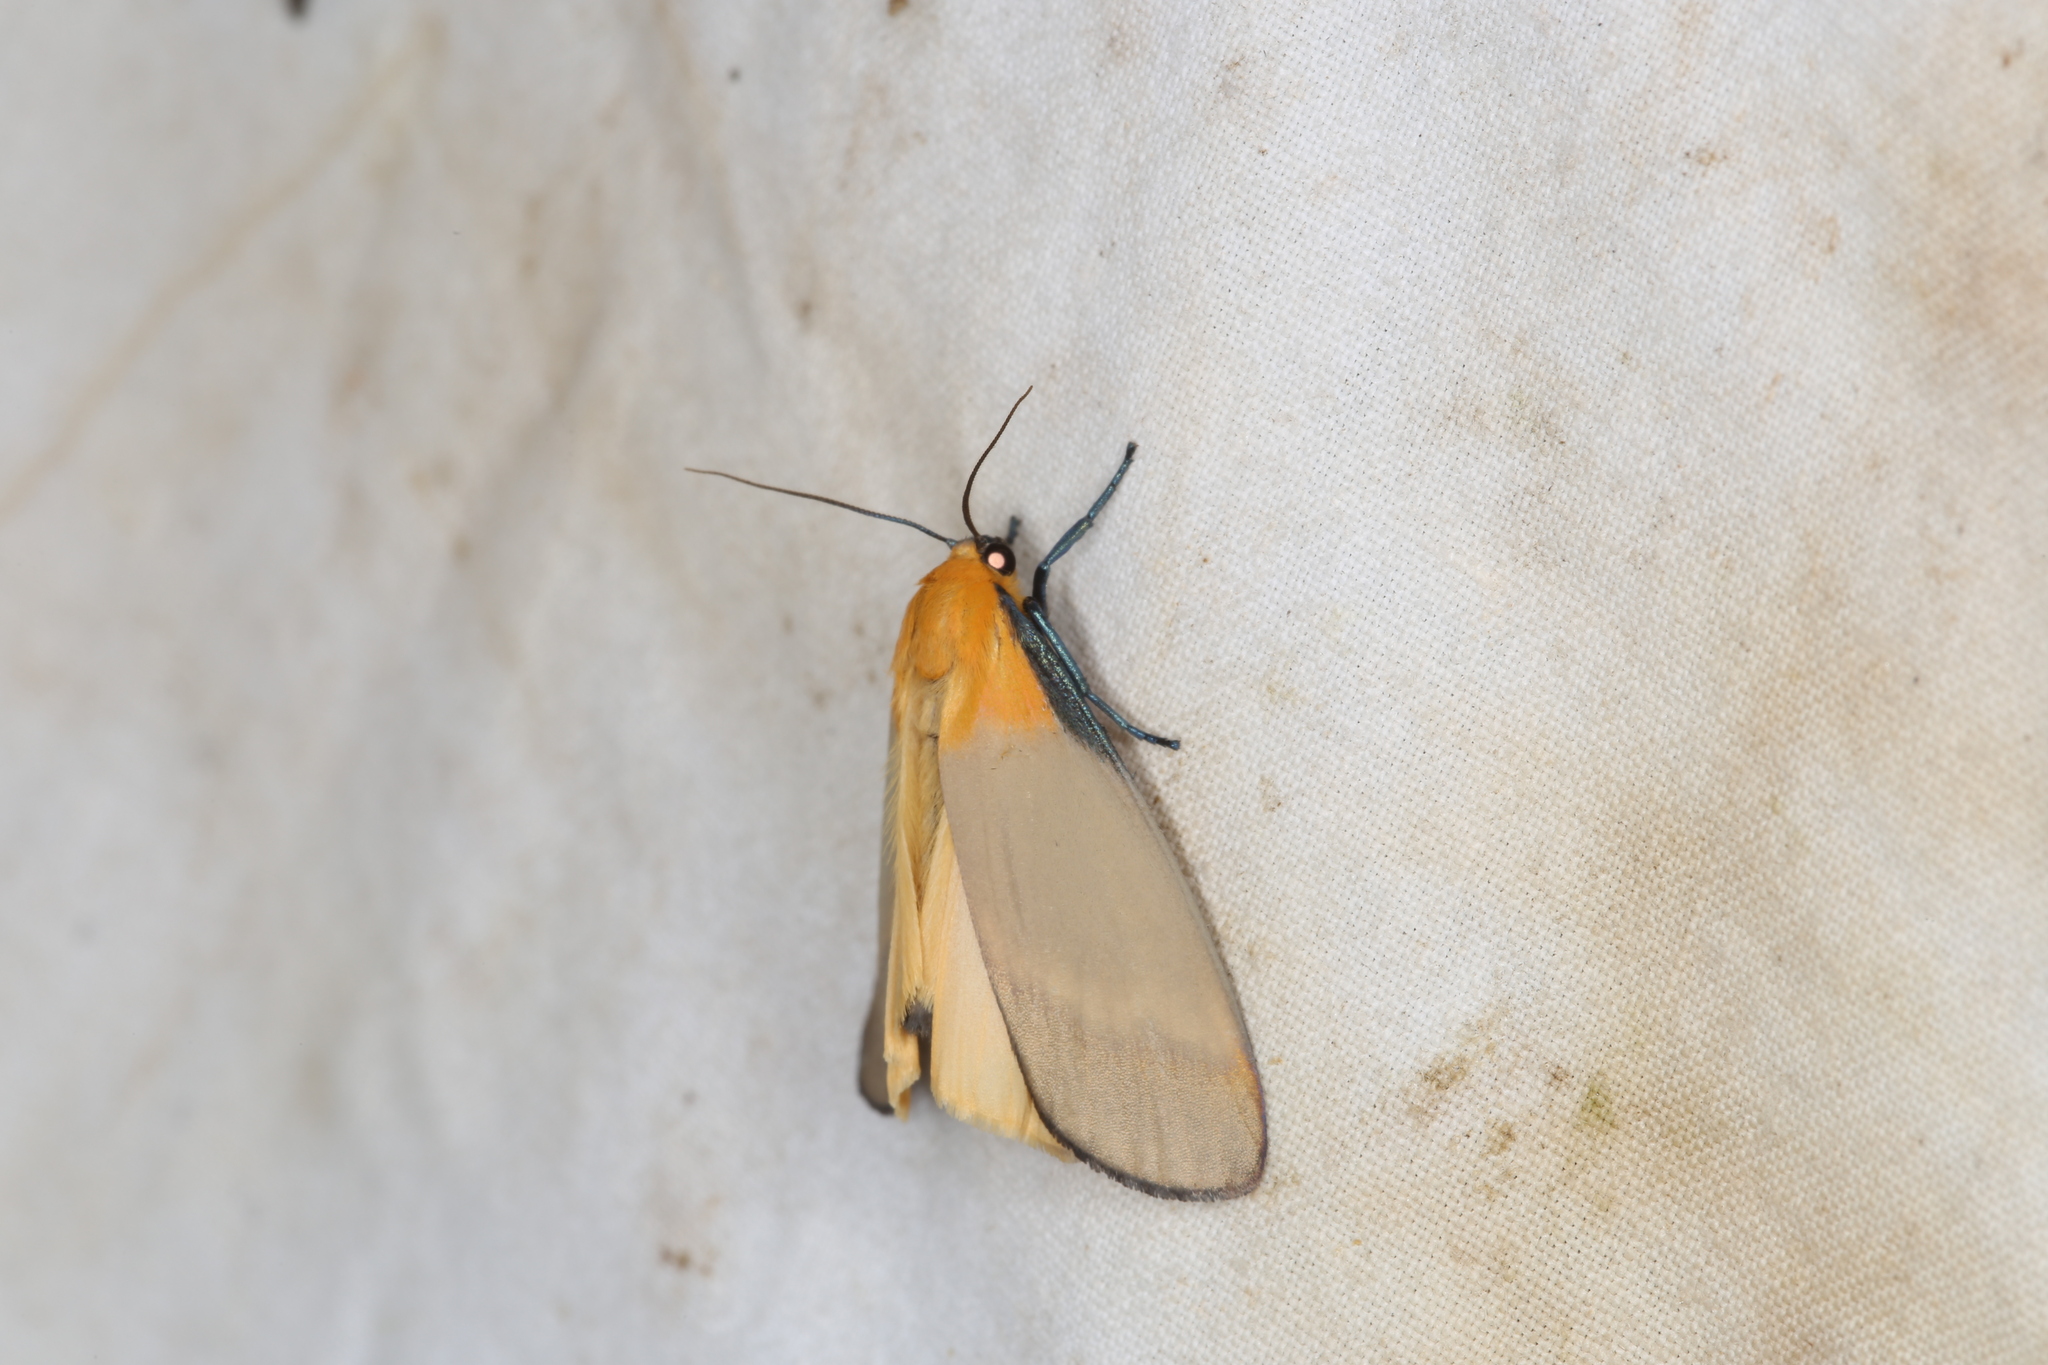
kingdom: Animalia
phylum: Arthropoda
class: Insecta
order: Lepidoptera
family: Erebidae
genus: Lithosia
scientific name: Lithosia quadra
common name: Four-spotted footman
